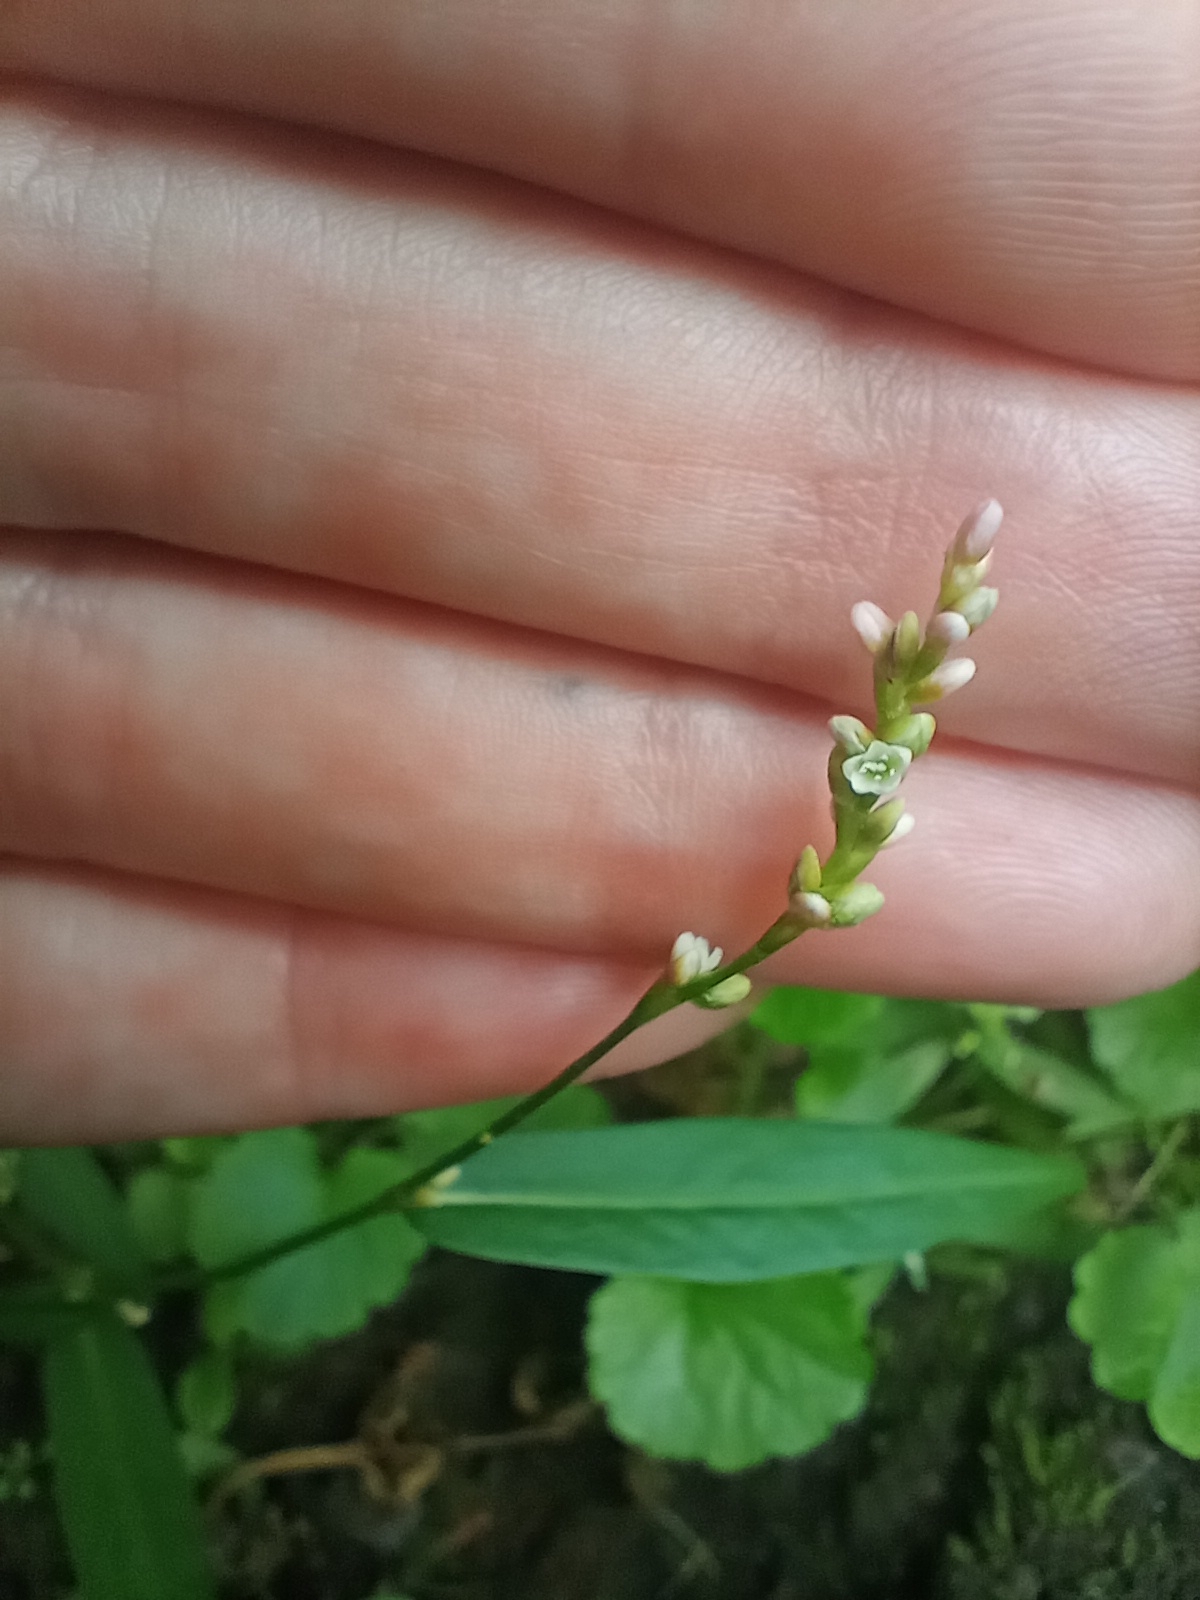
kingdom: Plantae
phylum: Tracheophyta
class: Magnoliopsida
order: Caryophyllales
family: Polygonaceae
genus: Persicaria
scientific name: Persicaria minor
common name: Small water-pepper
